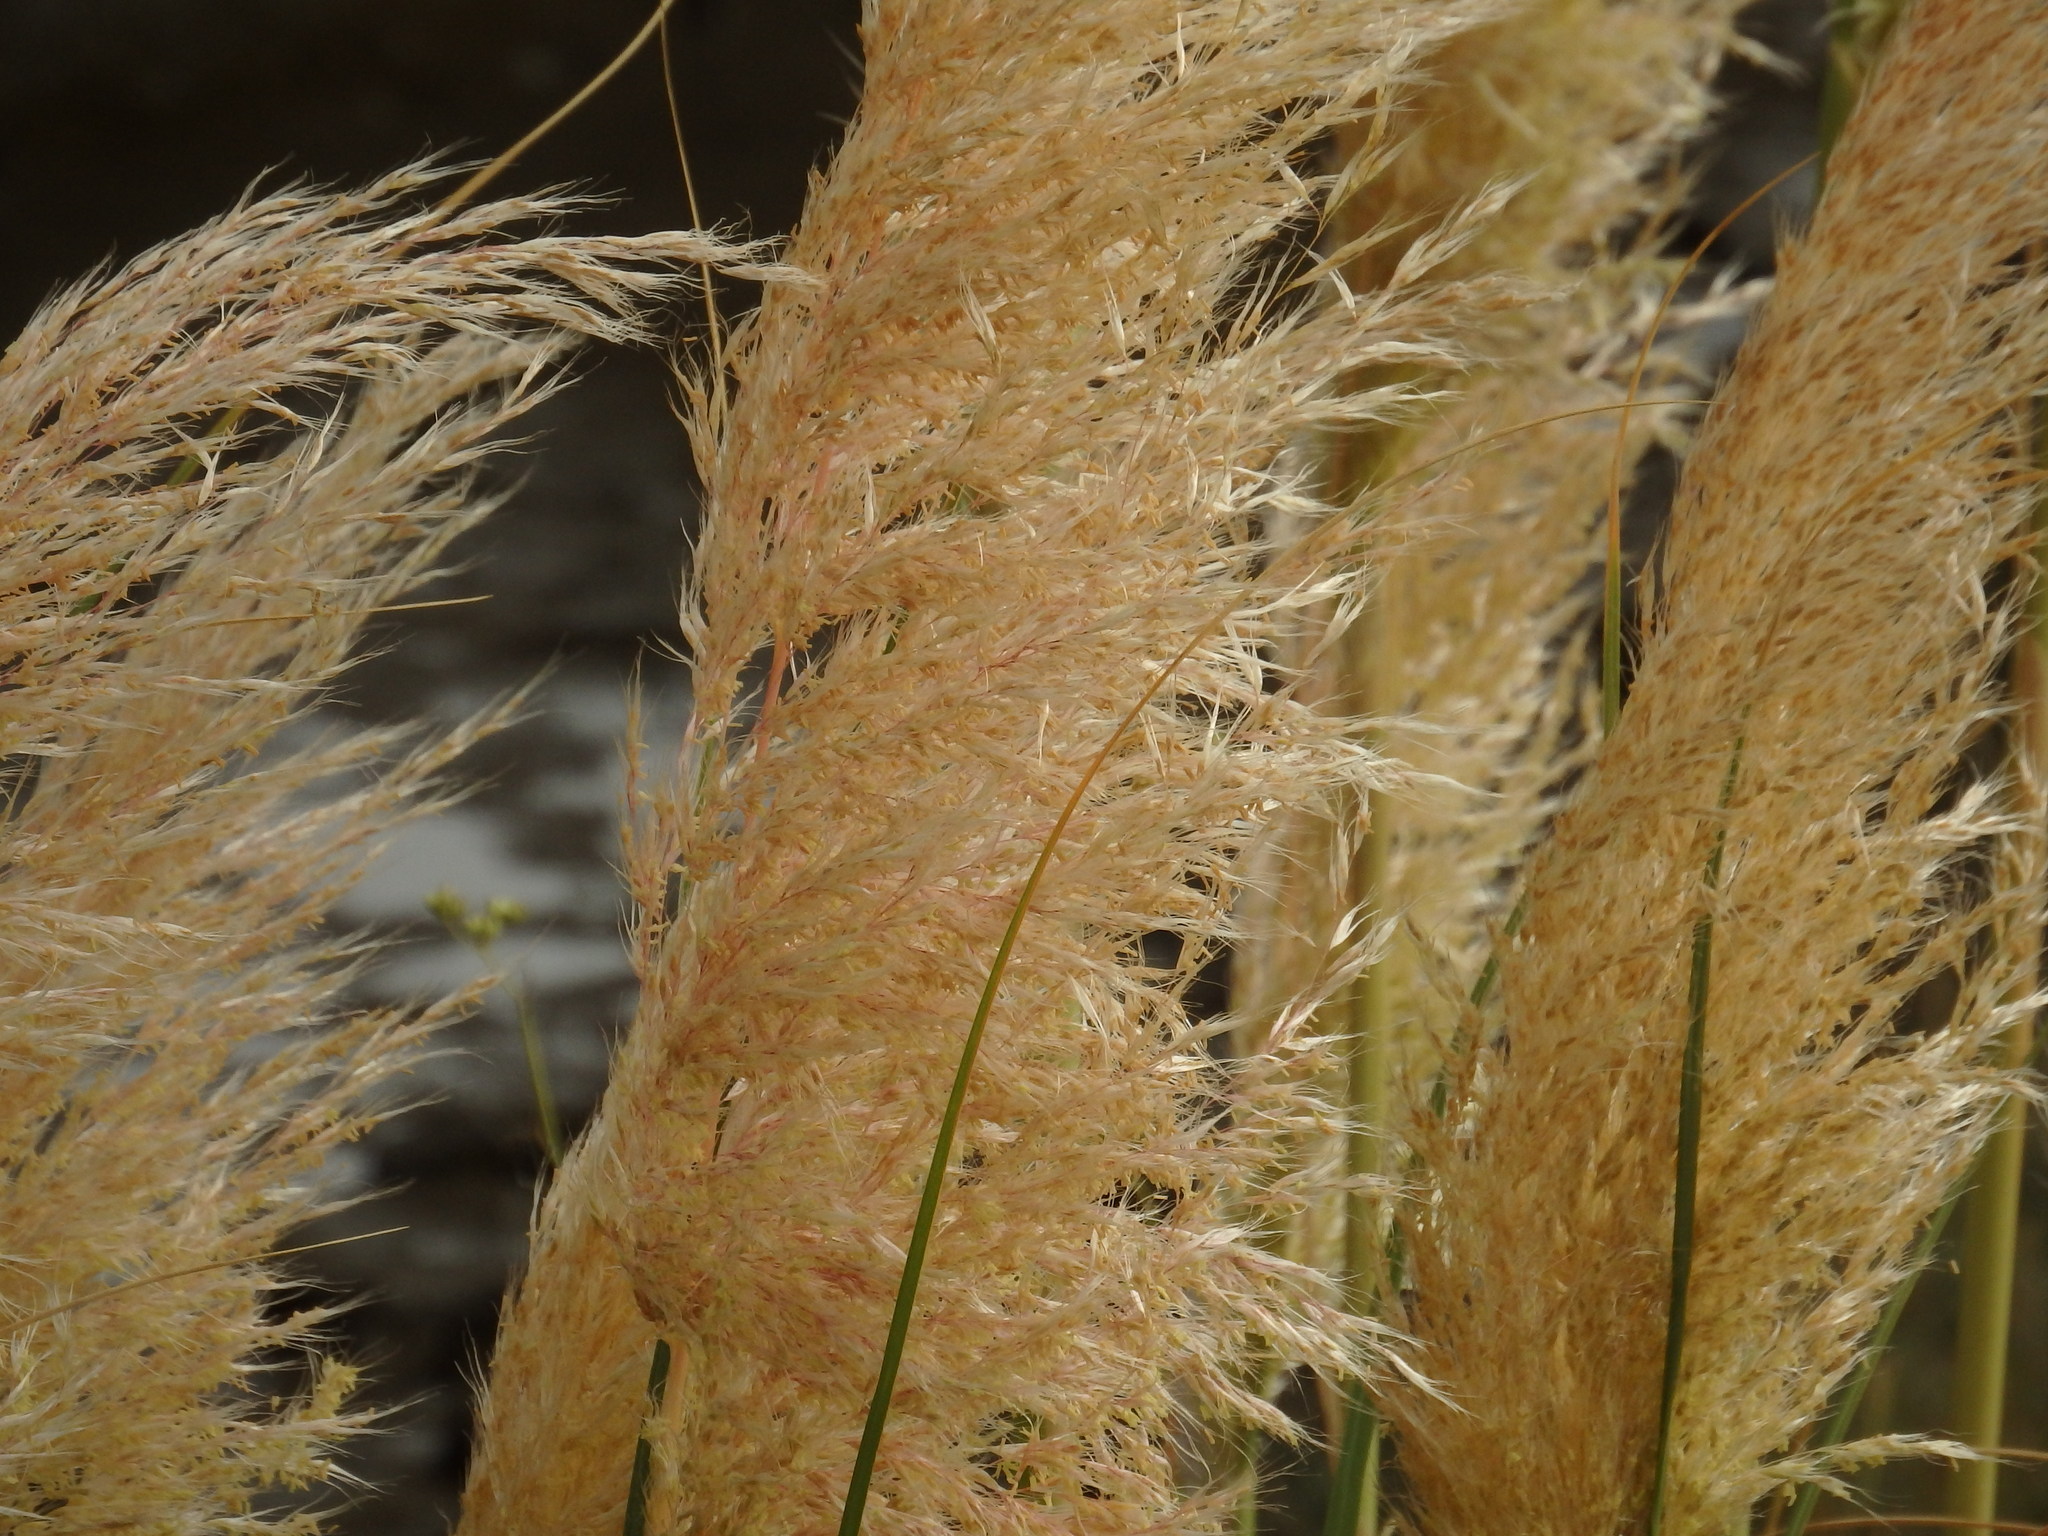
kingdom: Plantae
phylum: Tracheophyta
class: Liliopsida
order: Poales
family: Poaceae
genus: Cortaderia
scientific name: Cortaderia selloana
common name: Uruguayan pampas grass
